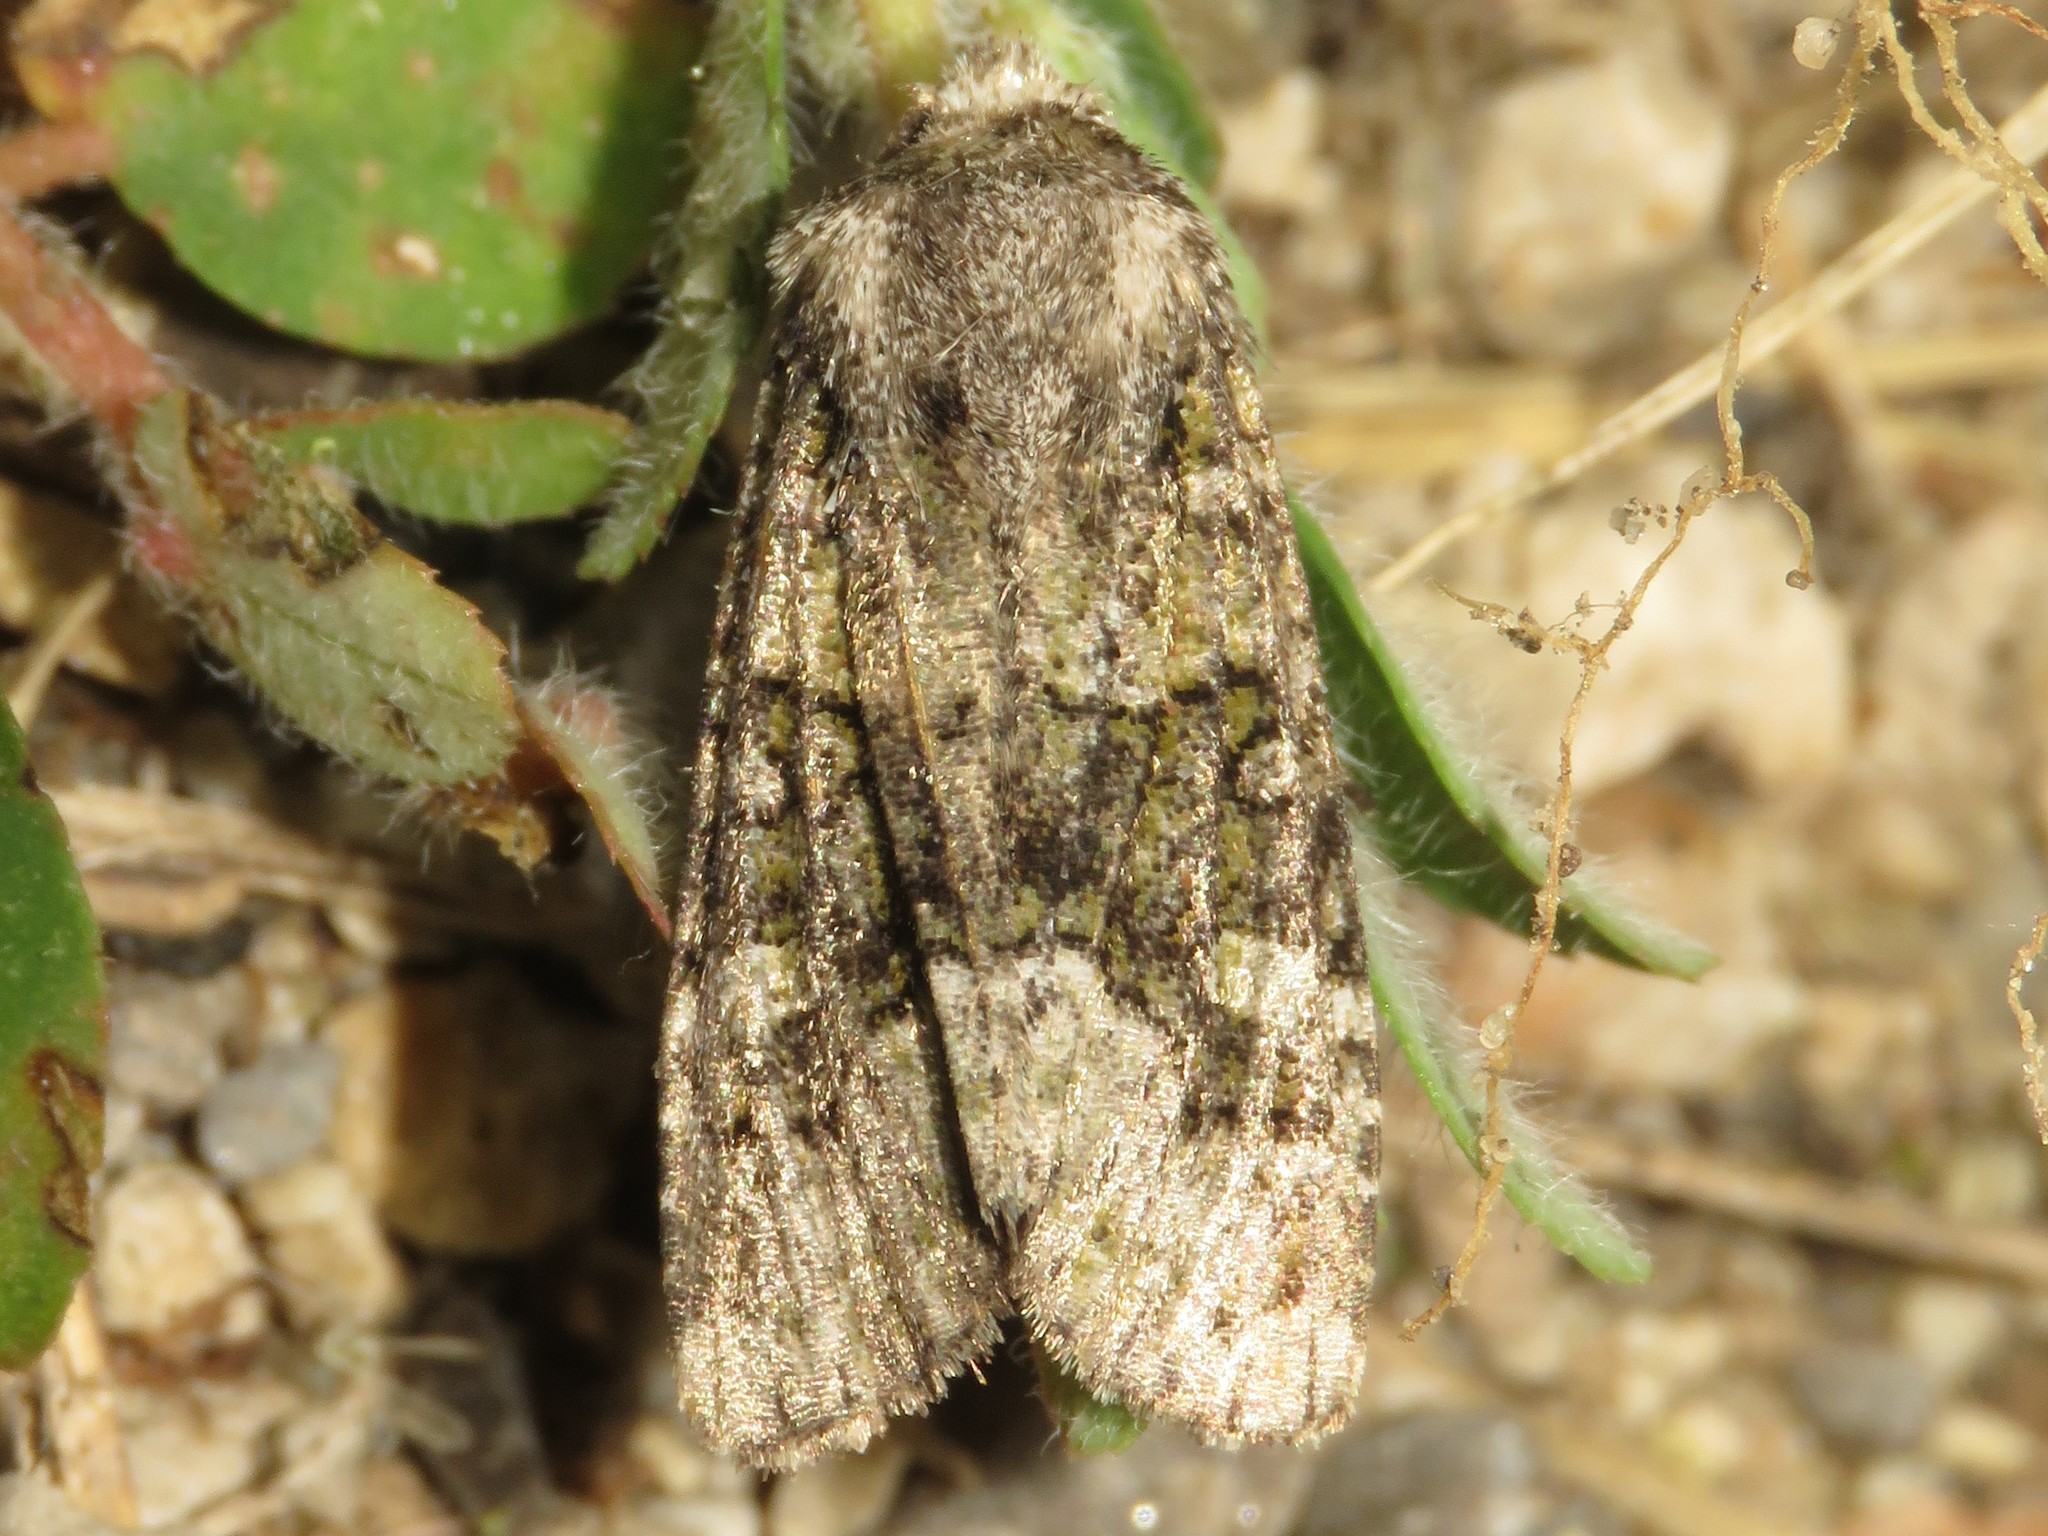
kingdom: Animalia
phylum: Arthropoda
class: Insecta
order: Lepidoptera
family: Noctuidae
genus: Lacinipolia
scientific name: Lacinipolia olivacea
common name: Olive arches moth
